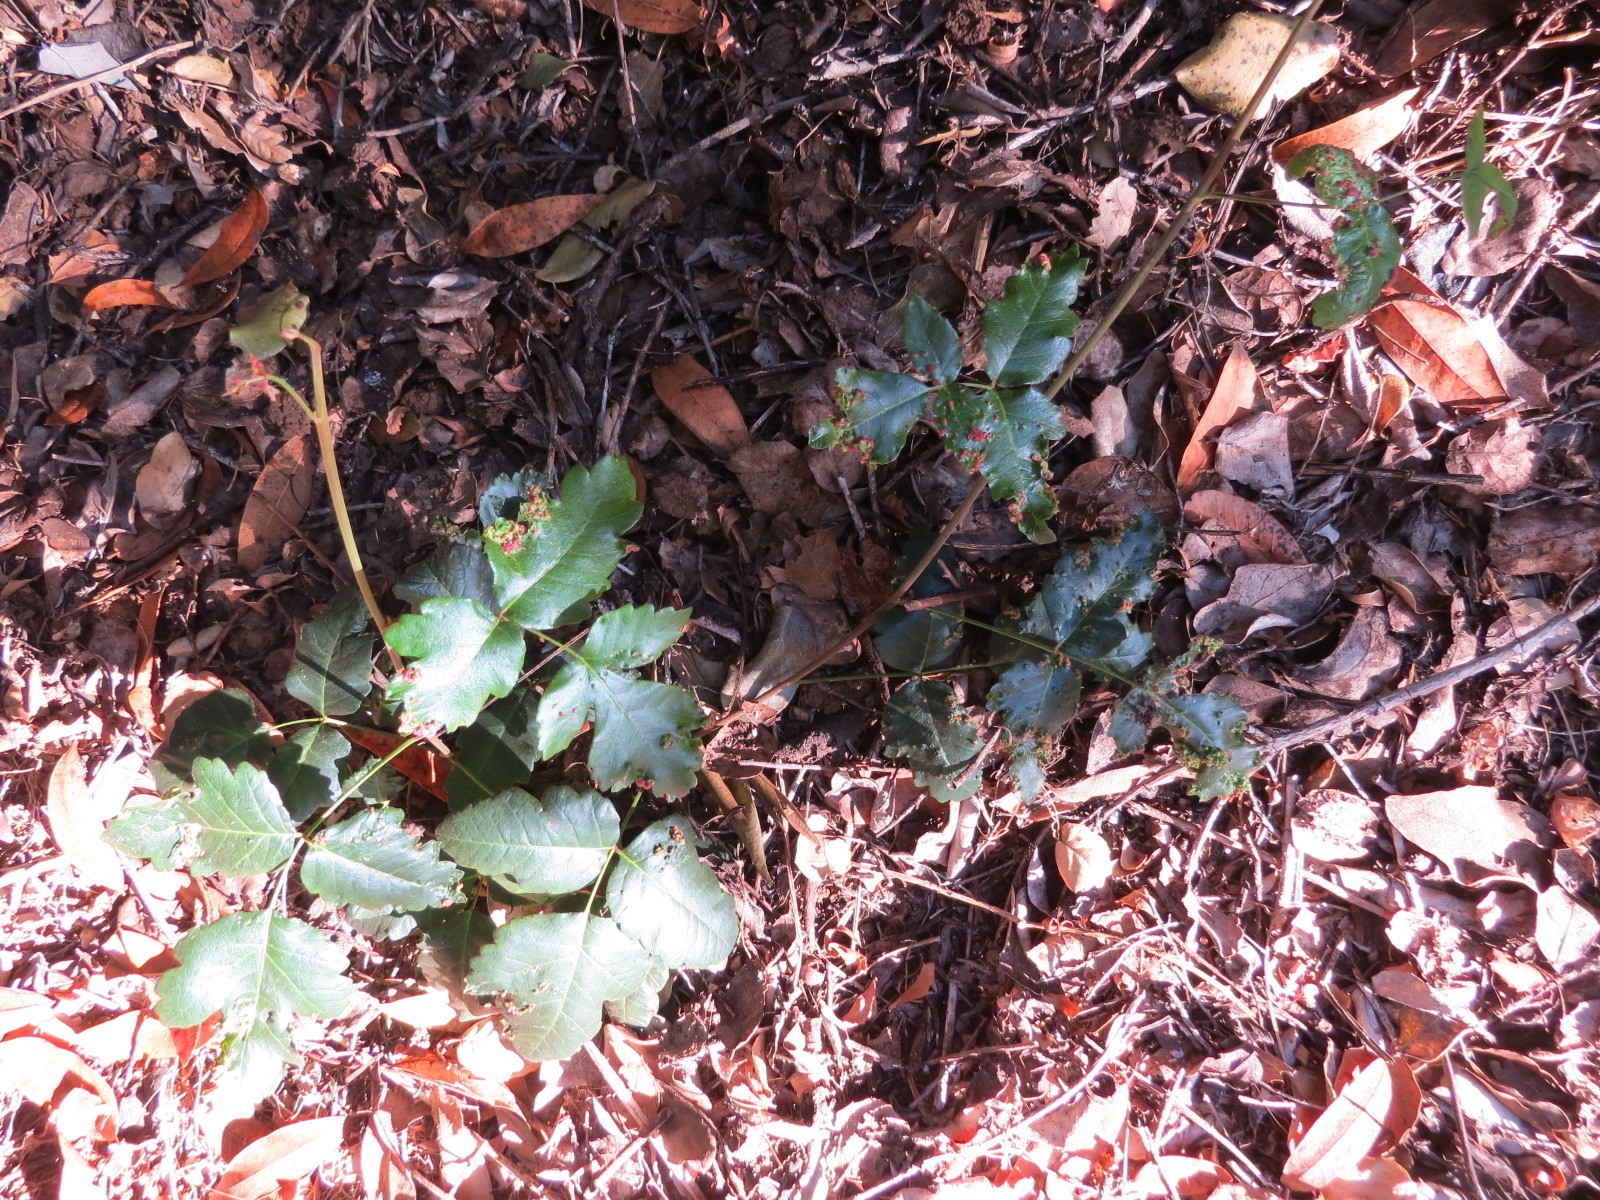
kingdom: Animalia
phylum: Arthropoda
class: Arachnida
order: Trombidiformes
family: Eriophyidae
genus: Aculops
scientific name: Aculops
